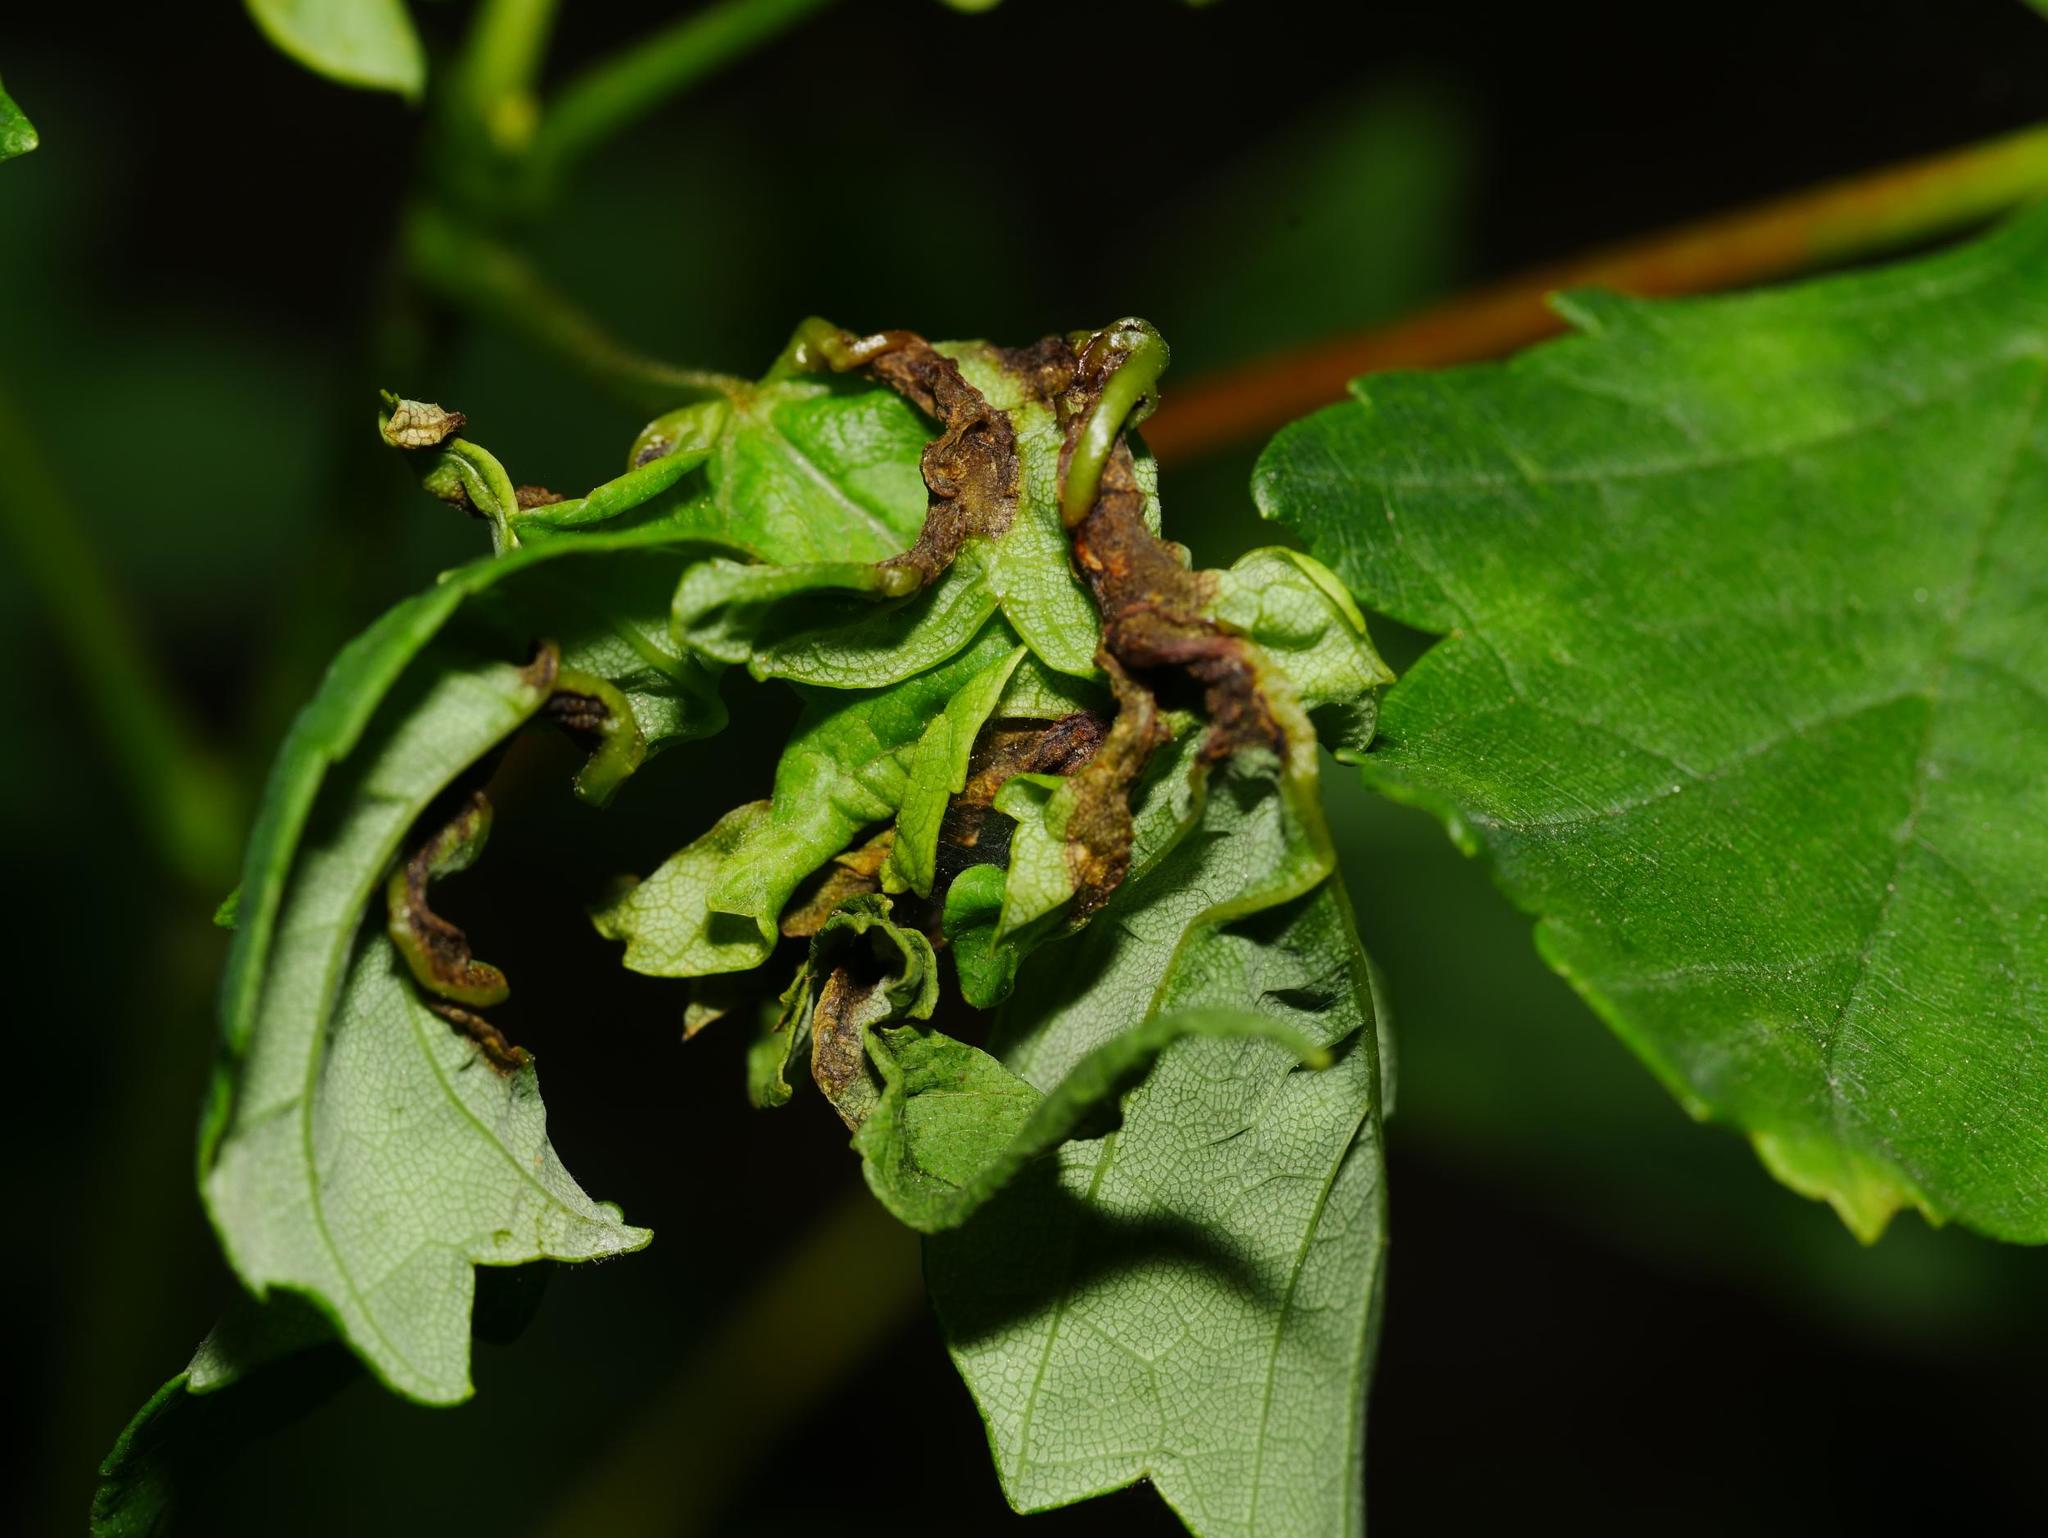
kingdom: Animalia
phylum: Arthropoda
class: Insecta
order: Diptera
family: Cecidomyiidae
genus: Dasineura
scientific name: Dasineura irregularis
